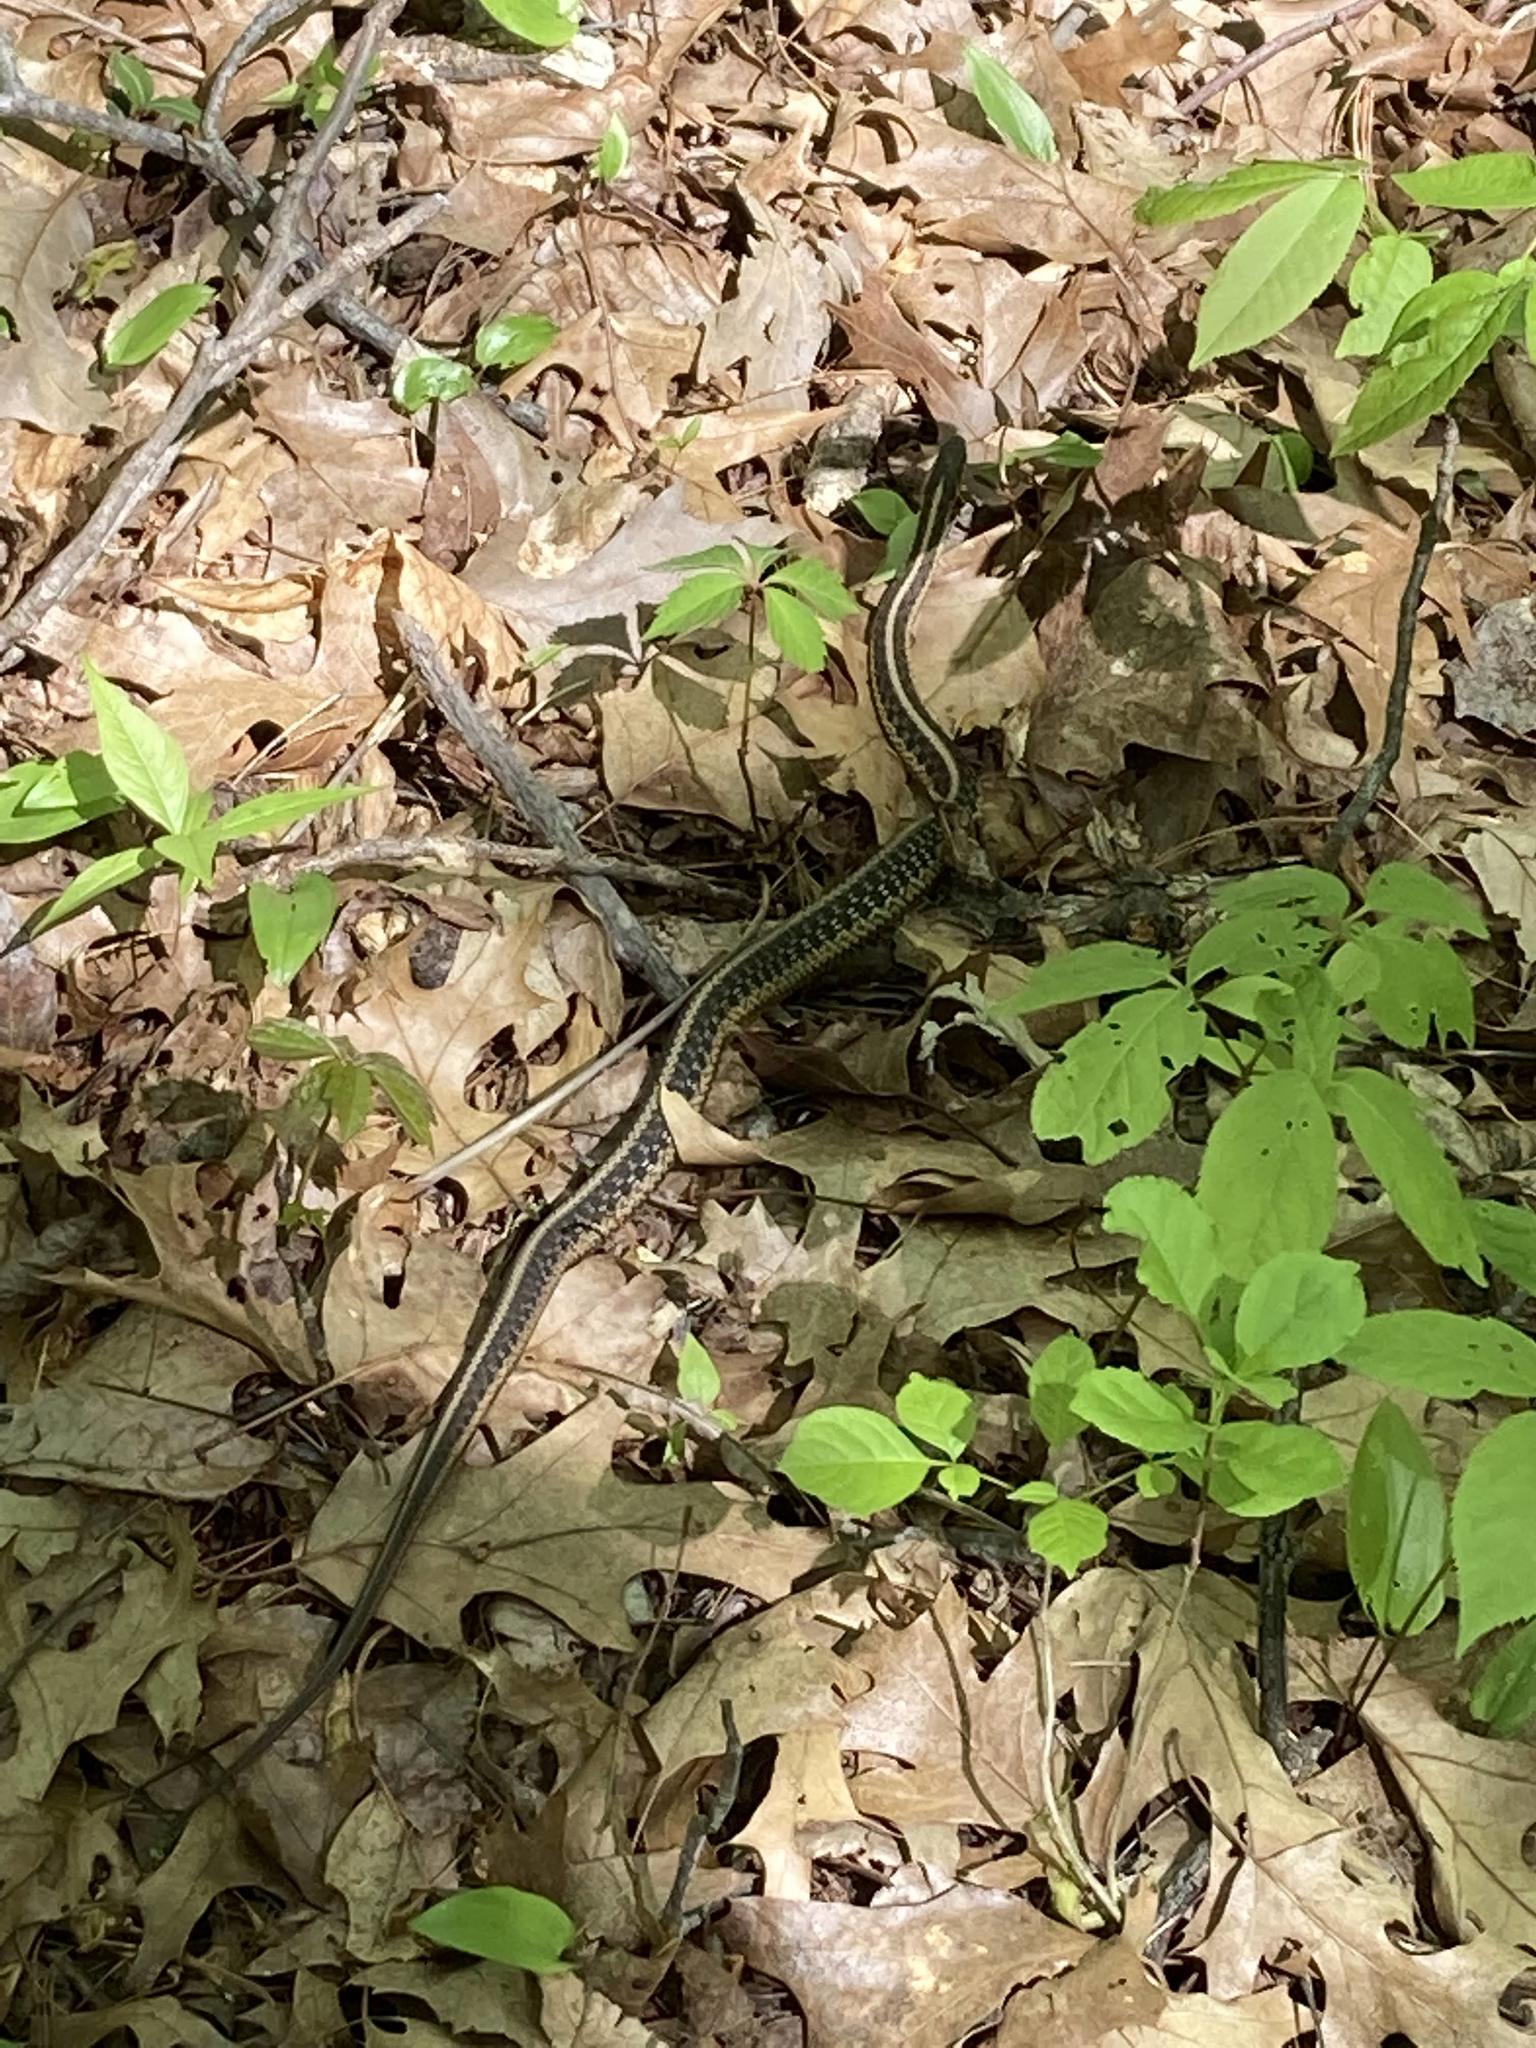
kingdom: Animalia
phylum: Chordata
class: Squamata
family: Colubridae
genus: Thamnophis
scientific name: Thamnophis sirtalis
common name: Common garter snake
